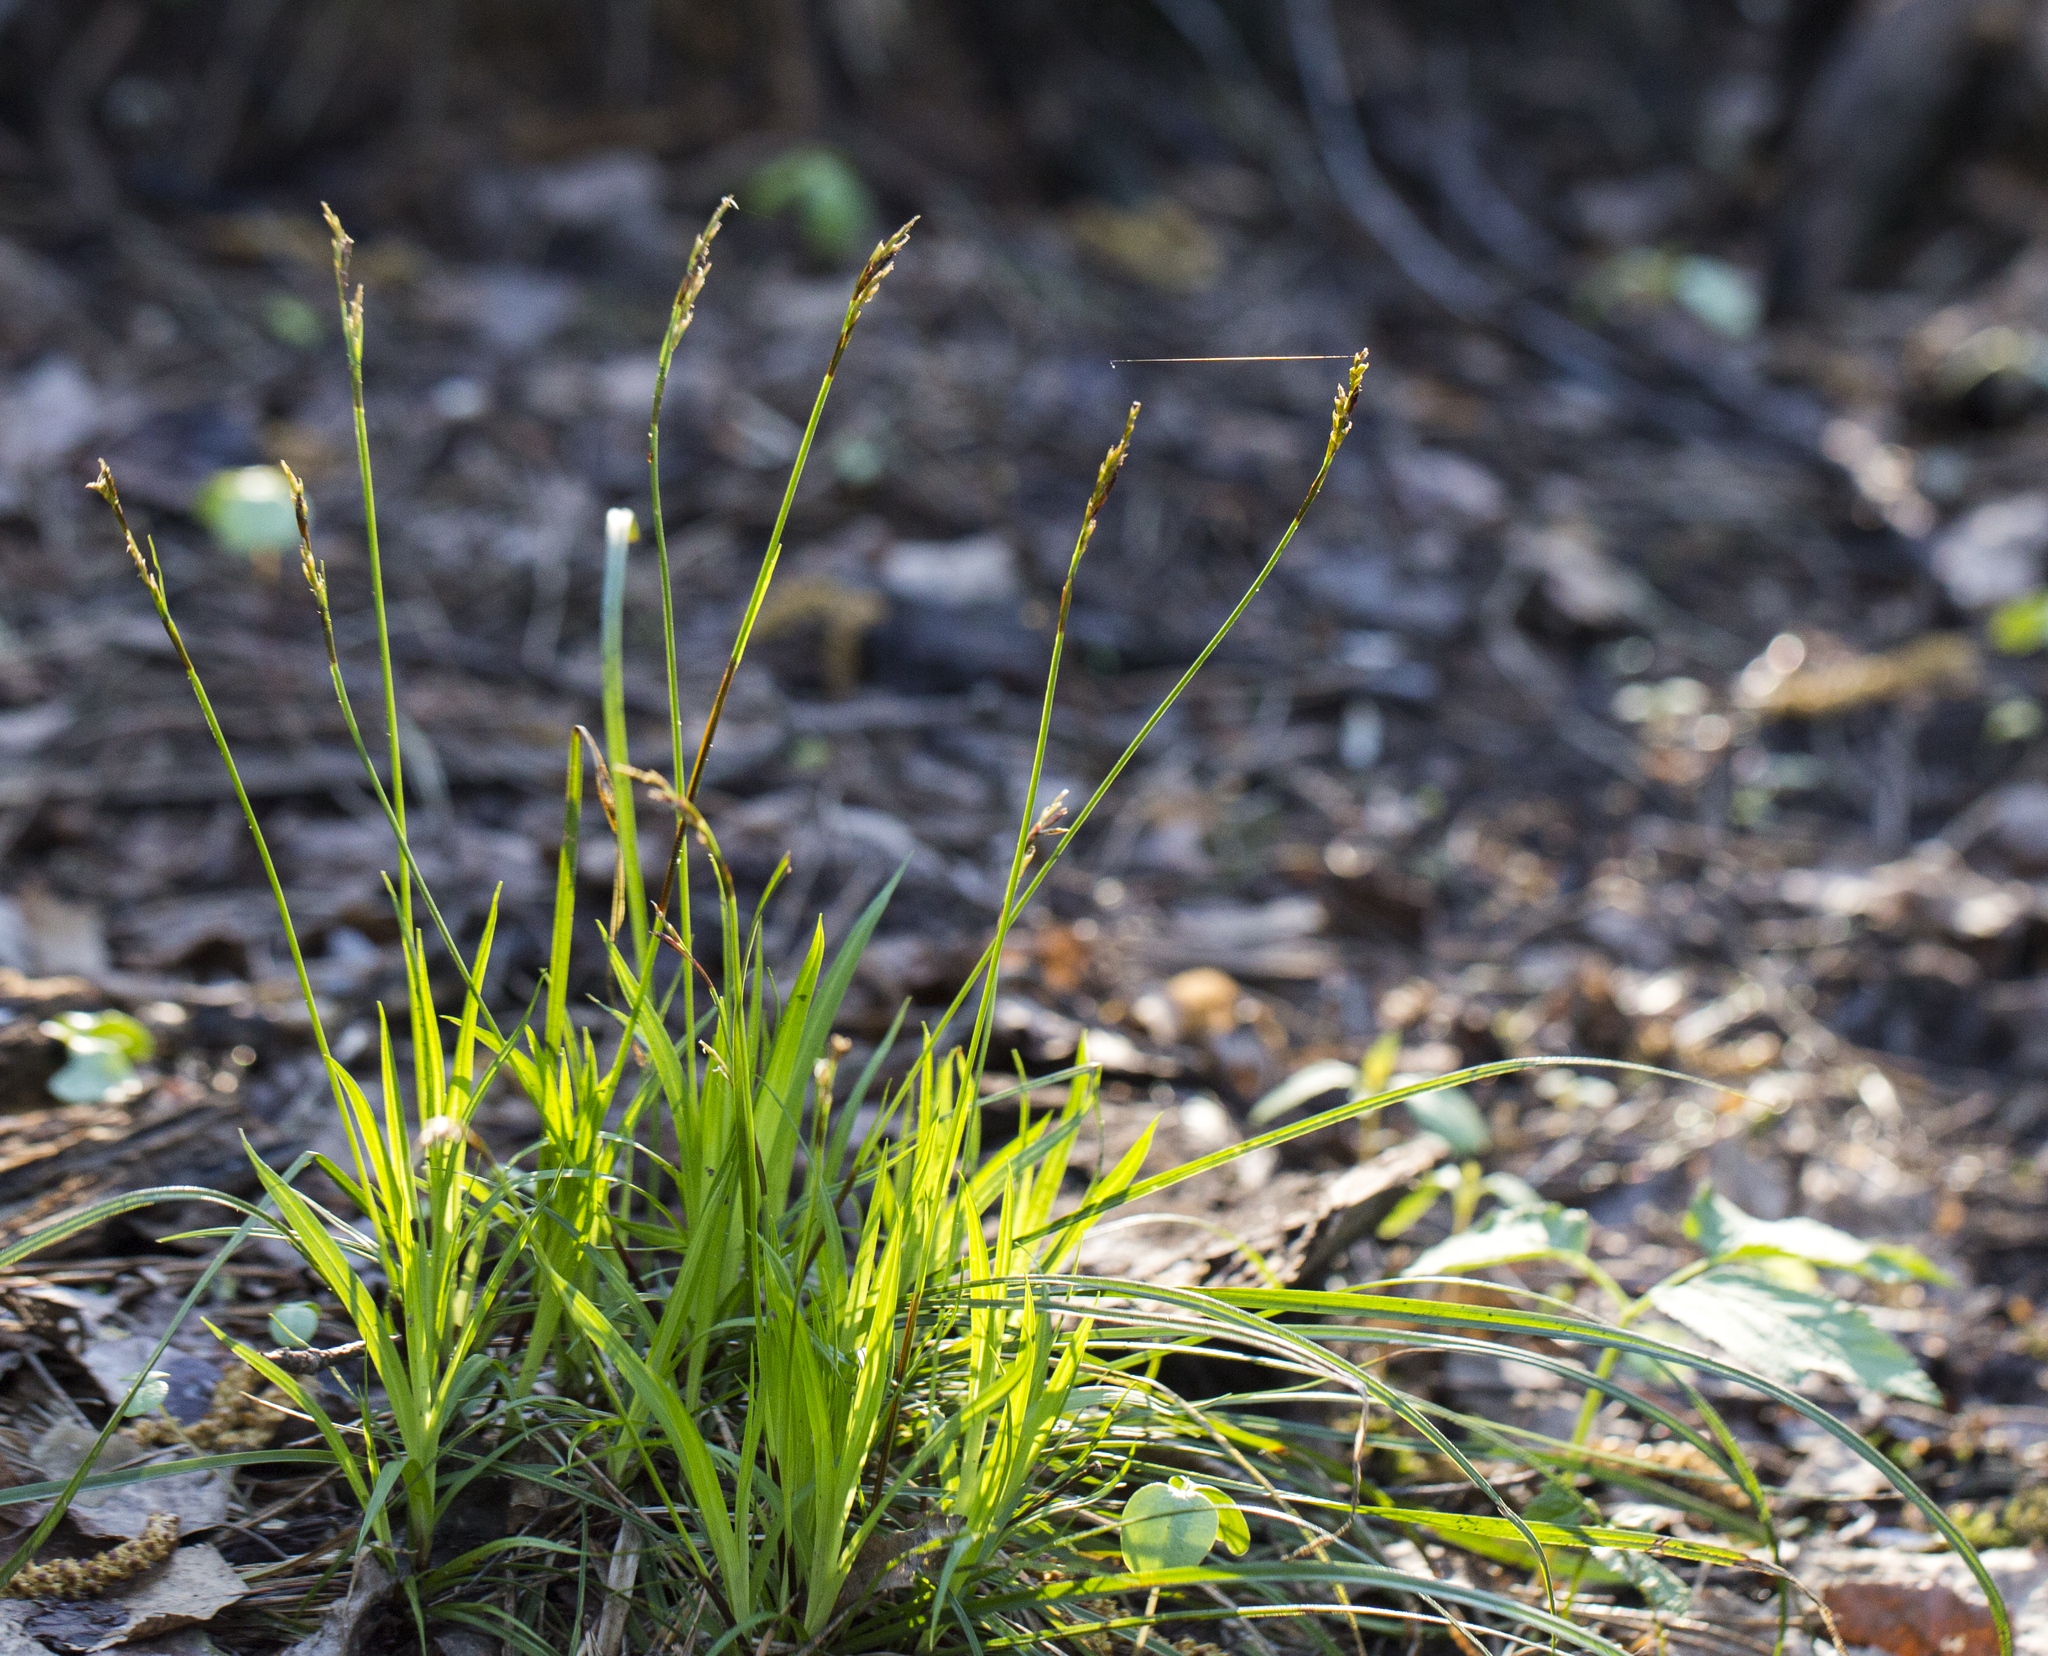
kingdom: Plantae
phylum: Tracheophyta
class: Liliopsida
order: Poales
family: Cyperaceae
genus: Carex
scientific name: Carex digitata
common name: Fingered sedge
